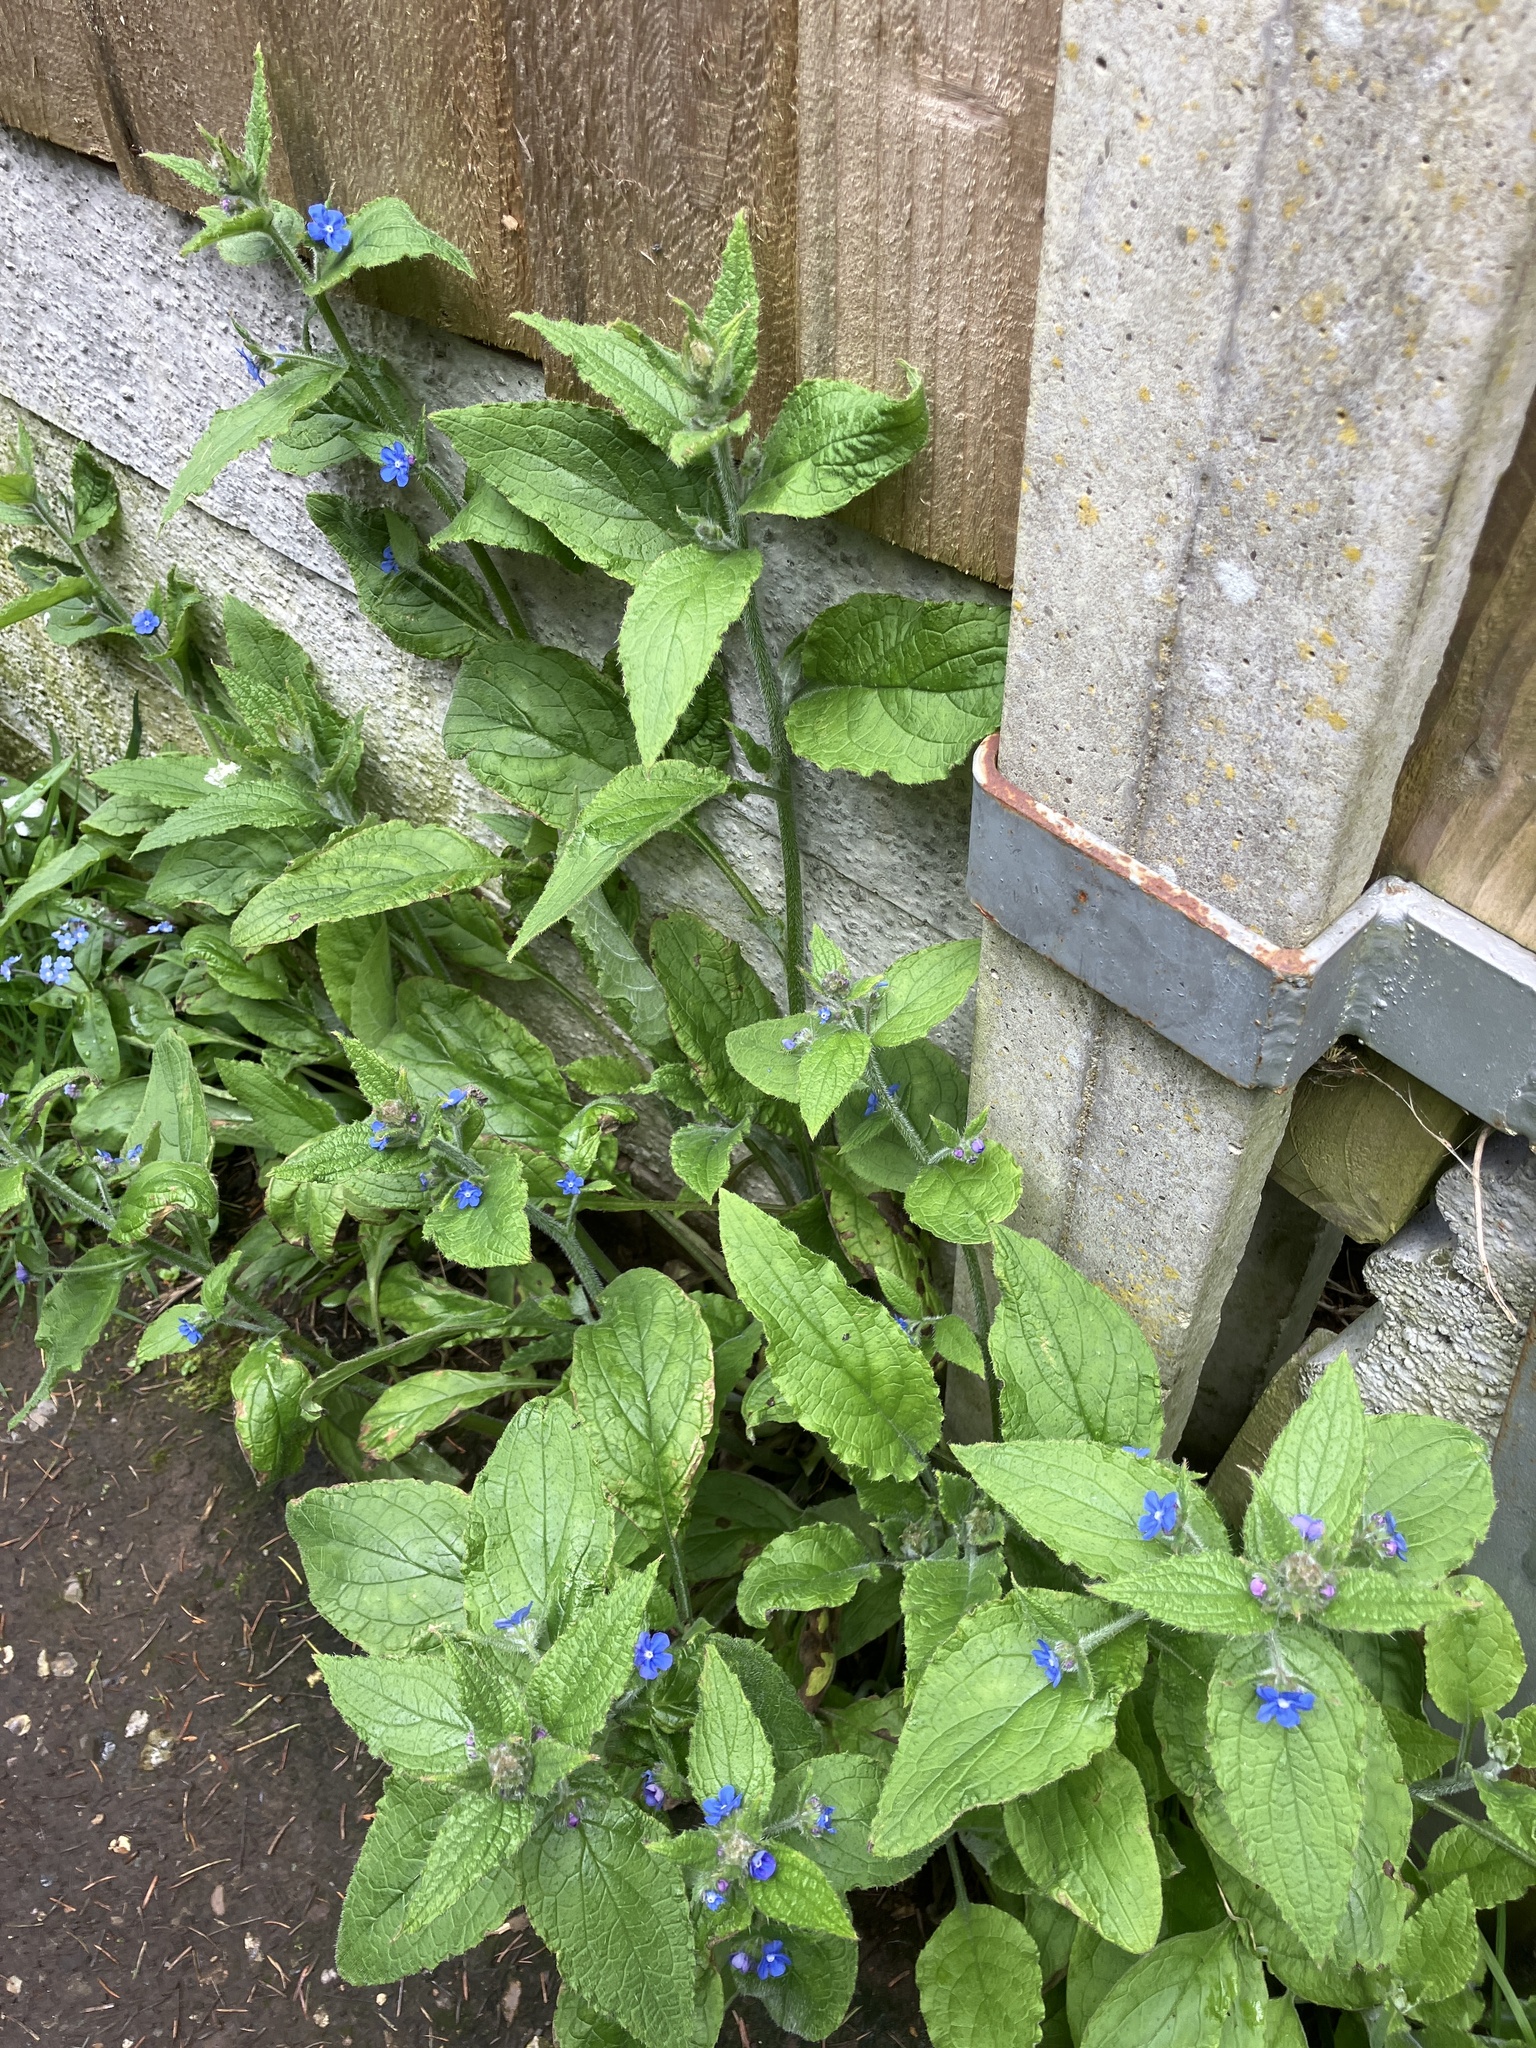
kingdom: Plantae
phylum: Tracheophyta
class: Magnoliopsida
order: Boraginales
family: Boraginaceae
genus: Pentaglottis
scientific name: Pentaglottis sempervirens
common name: Green alkanet
